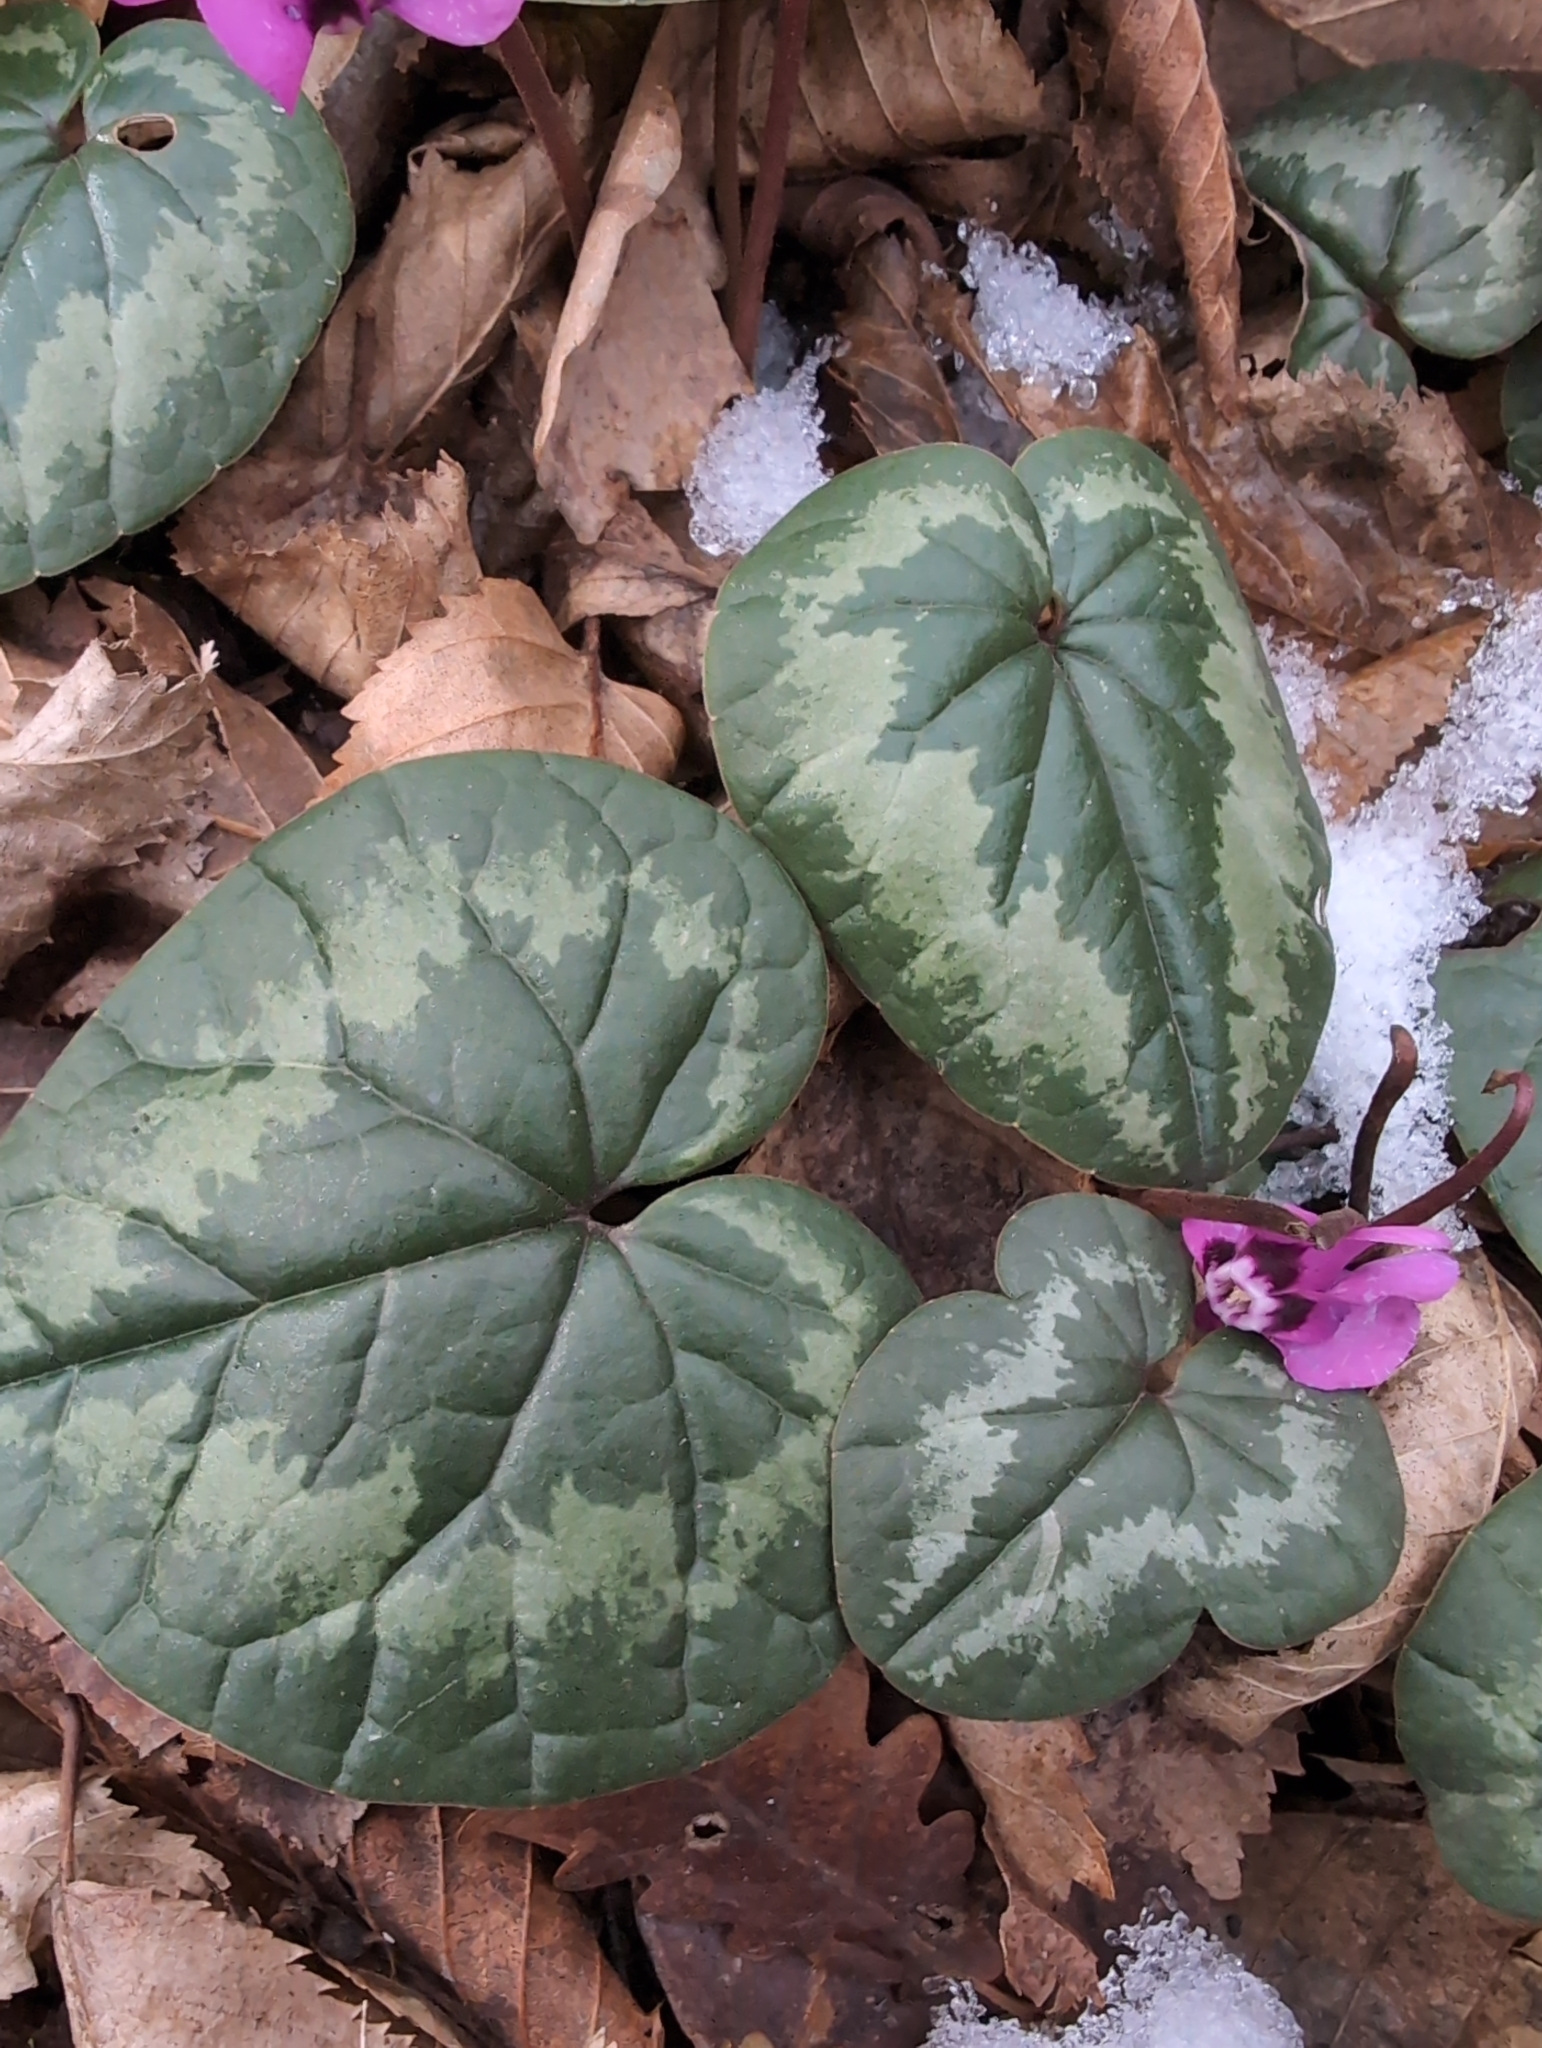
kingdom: Plantae
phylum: Tracheophyta
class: Magnoliopsida
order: Ericales
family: Primulaceae
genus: Cyclamen
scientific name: Cyclamen coum
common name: Eastern sowbread
